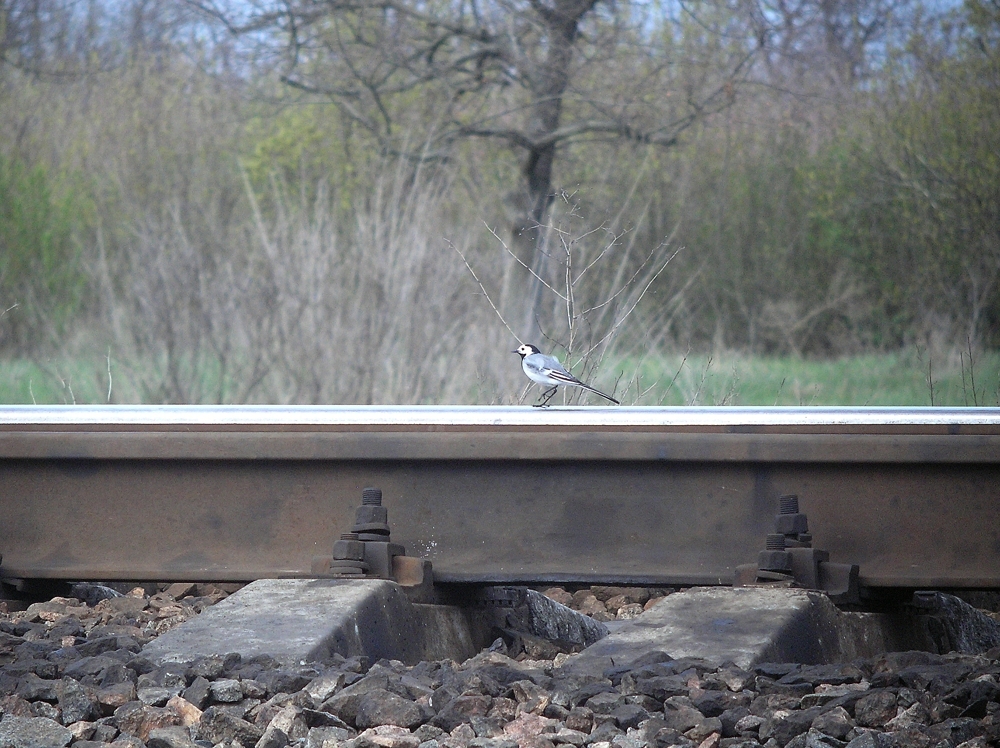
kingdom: Animalia
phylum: Chordata
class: Aves
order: Passeriformes
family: Motacillidae
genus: Motacilla
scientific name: Motacilla alba
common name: White wagtail
